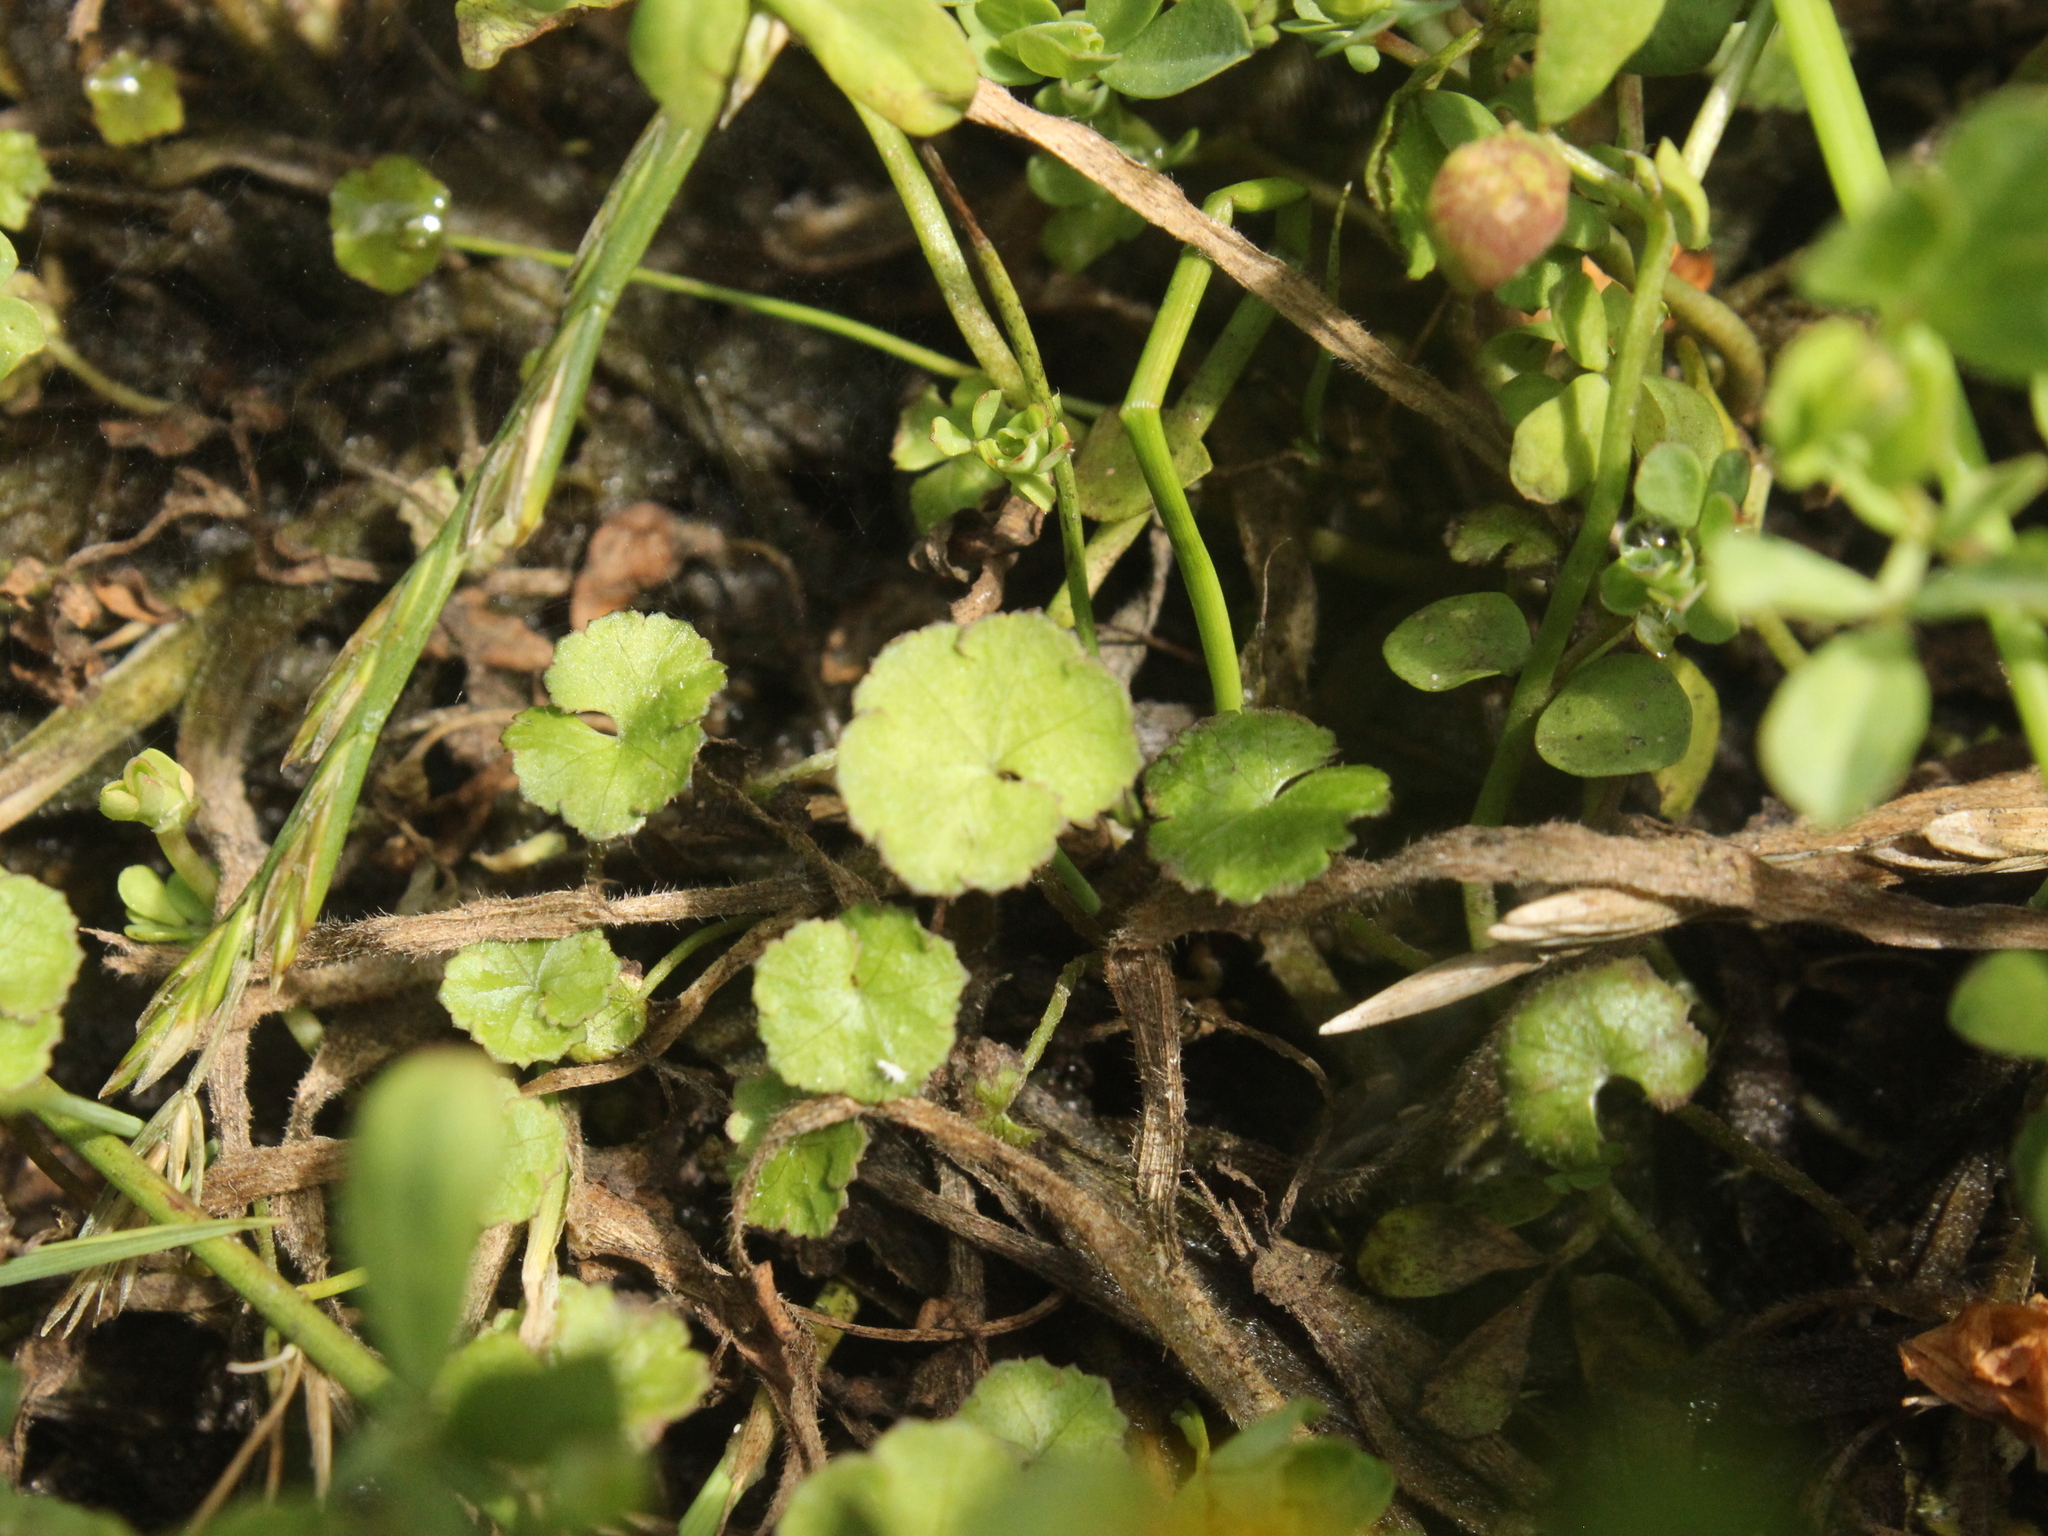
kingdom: Plantae
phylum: Tracheophyta
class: Magnoliopsida
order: Apiales
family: Araliaceae
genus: Hydrocotyle
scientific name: Hydrocotyle novae-zeelandiae
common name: New zealand pennywort
